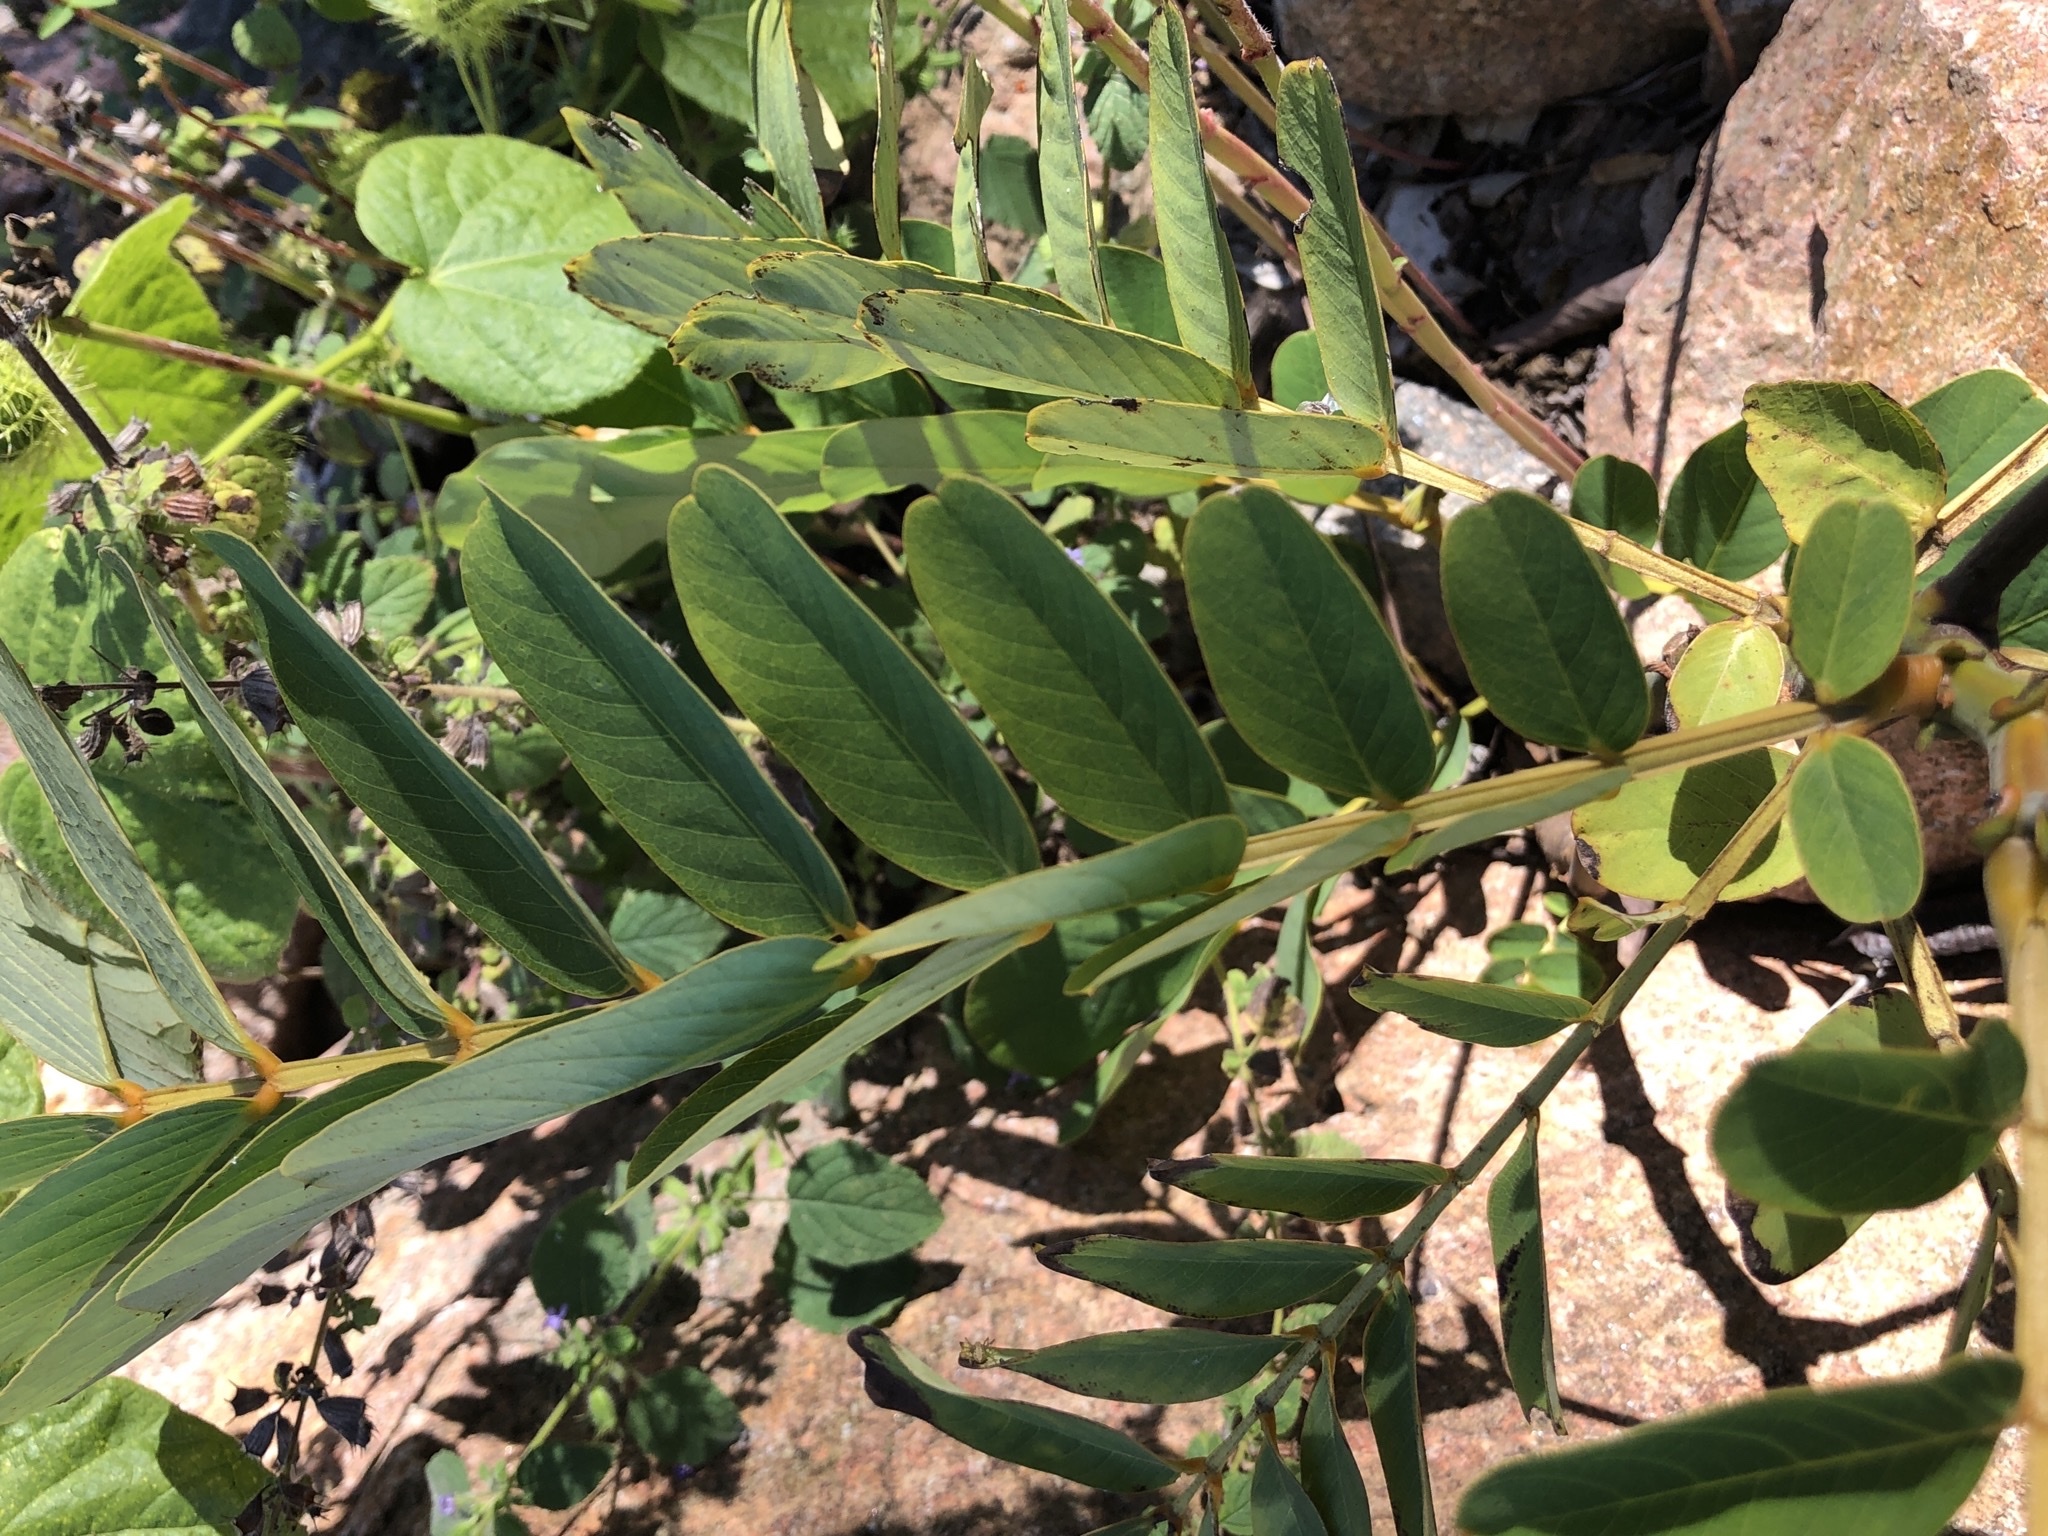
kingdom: Plantae
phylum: Tracheophyta
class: Magnoliopsida
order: Fabales
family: Fabaceae
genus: Senna
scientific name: Senna alata
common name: Emperor's candlesticks
